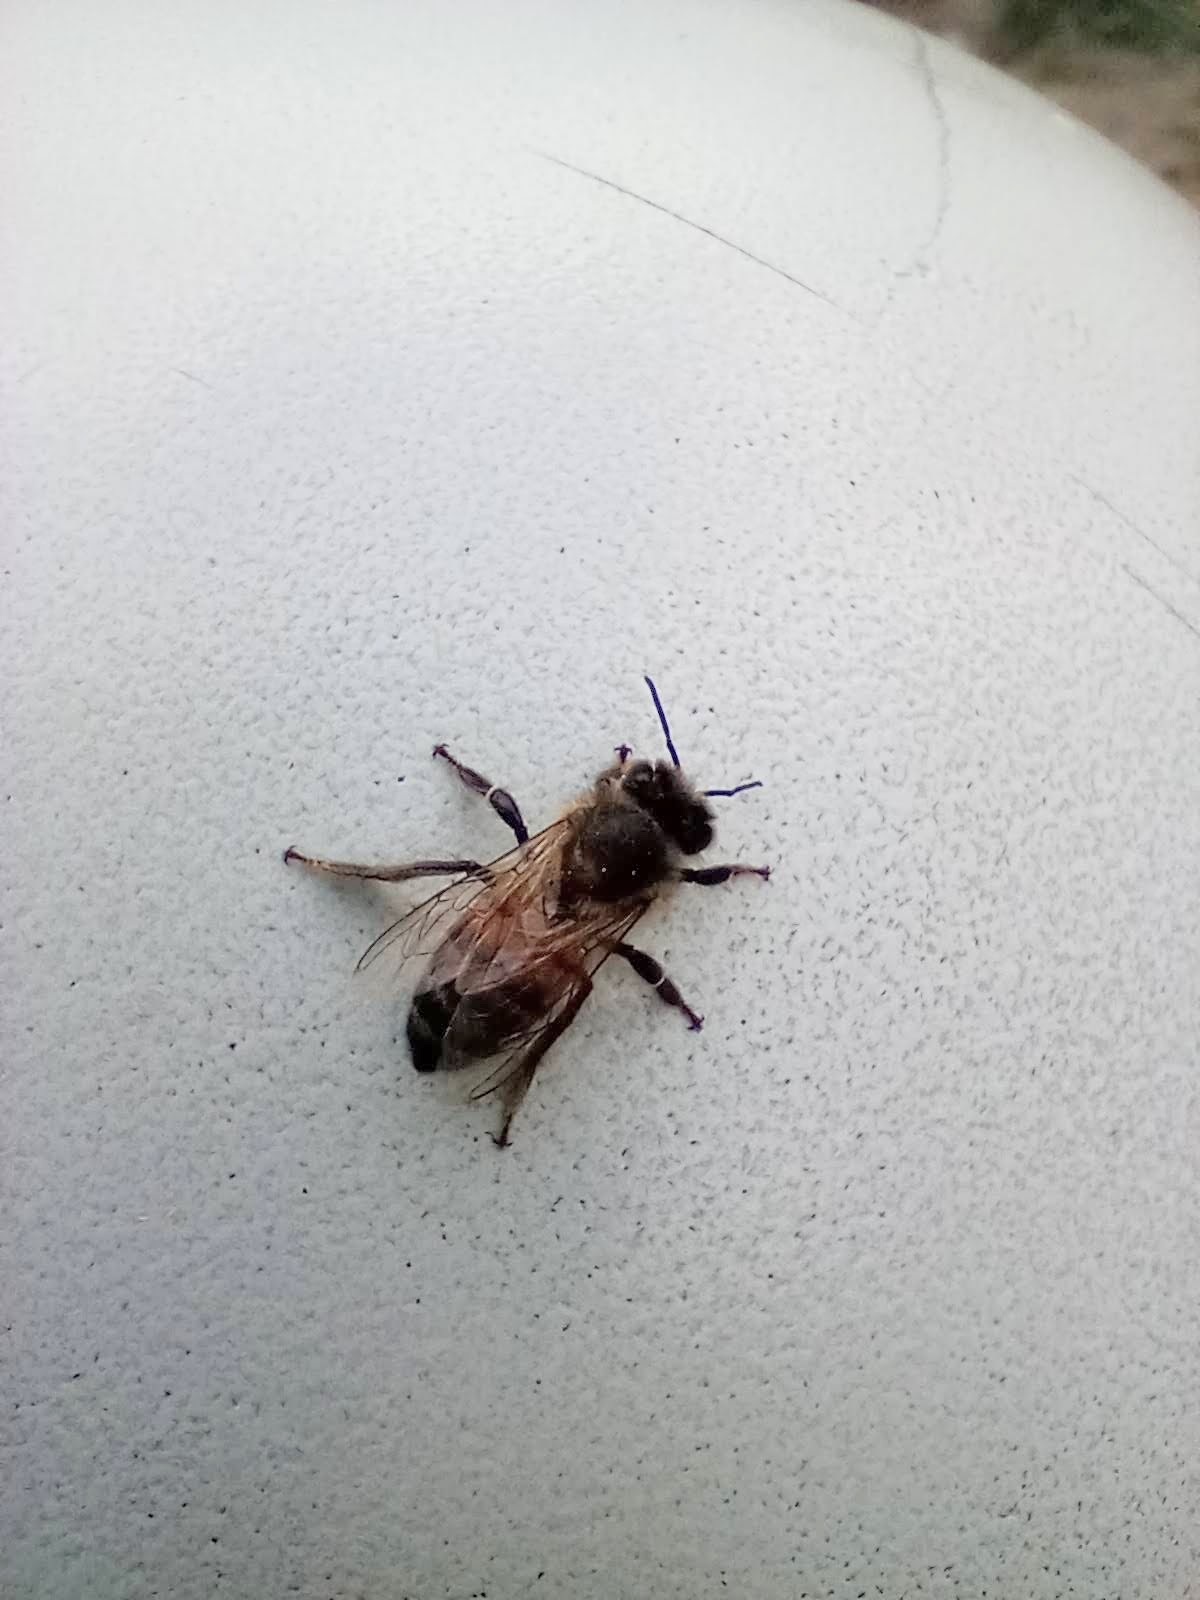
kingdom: Animalia
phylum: Arthropoda
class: Insecta
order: Hymenoptera
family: Apidae
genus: Apis
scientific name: Apis mellifera
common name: Honey bee
